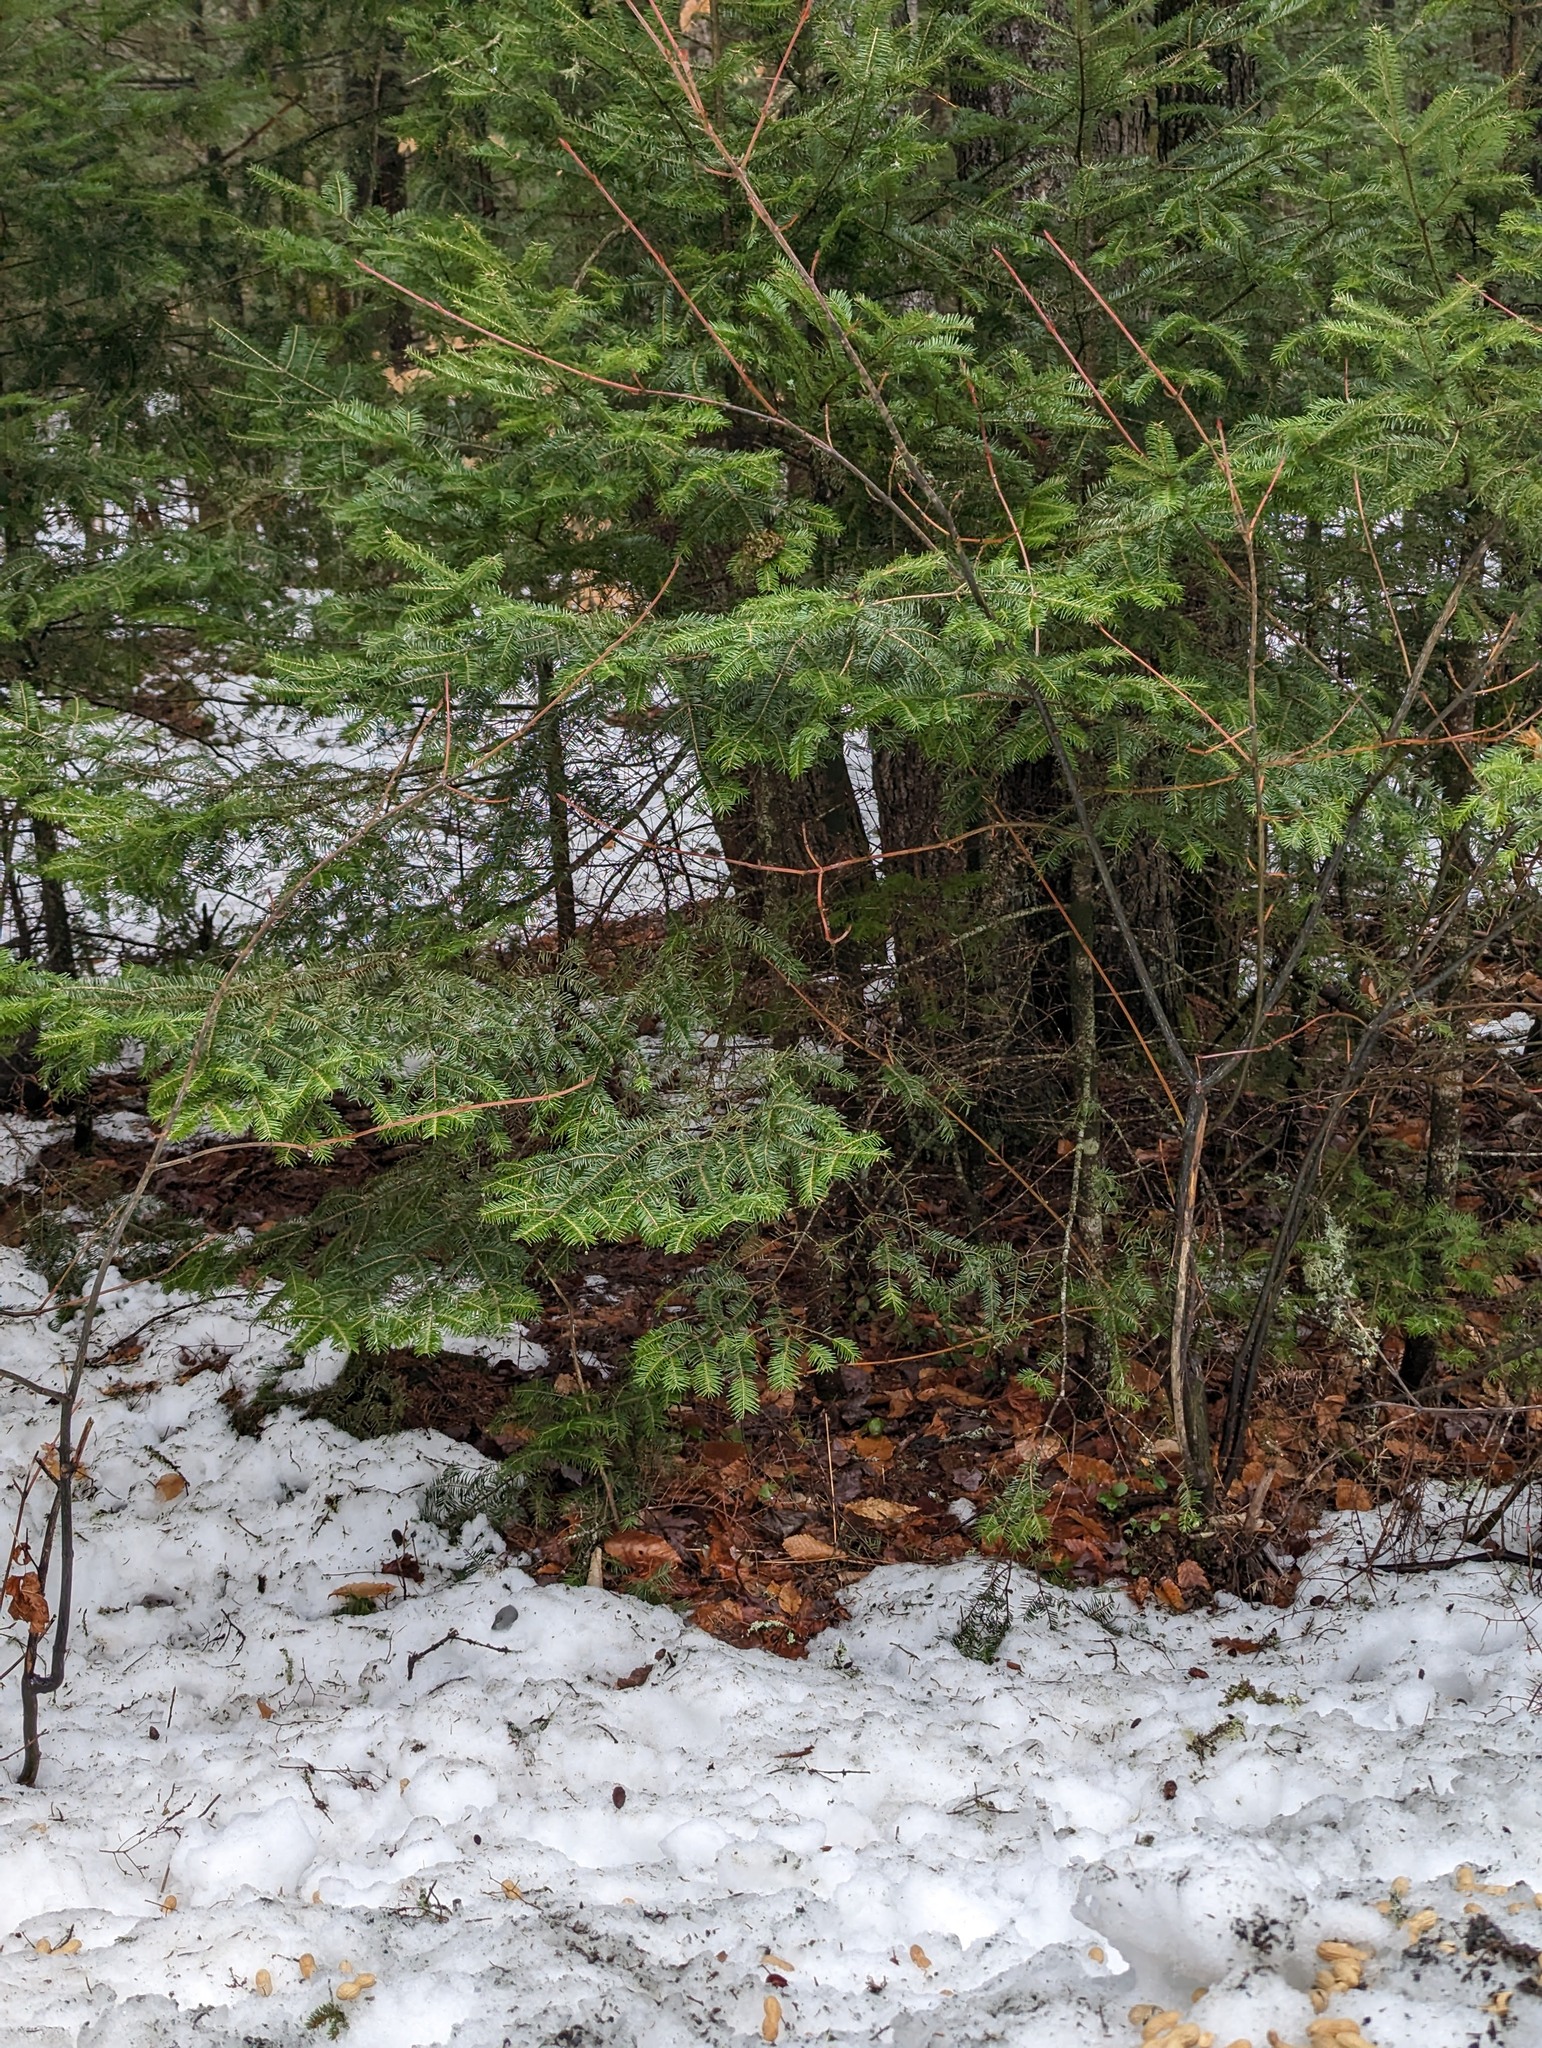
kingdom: Plantae
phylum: Tracheophyta
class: Pinopsida
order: Pinales
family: Pinaceae
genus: Abies
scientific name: Abies balsamea
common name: Balsam fir
